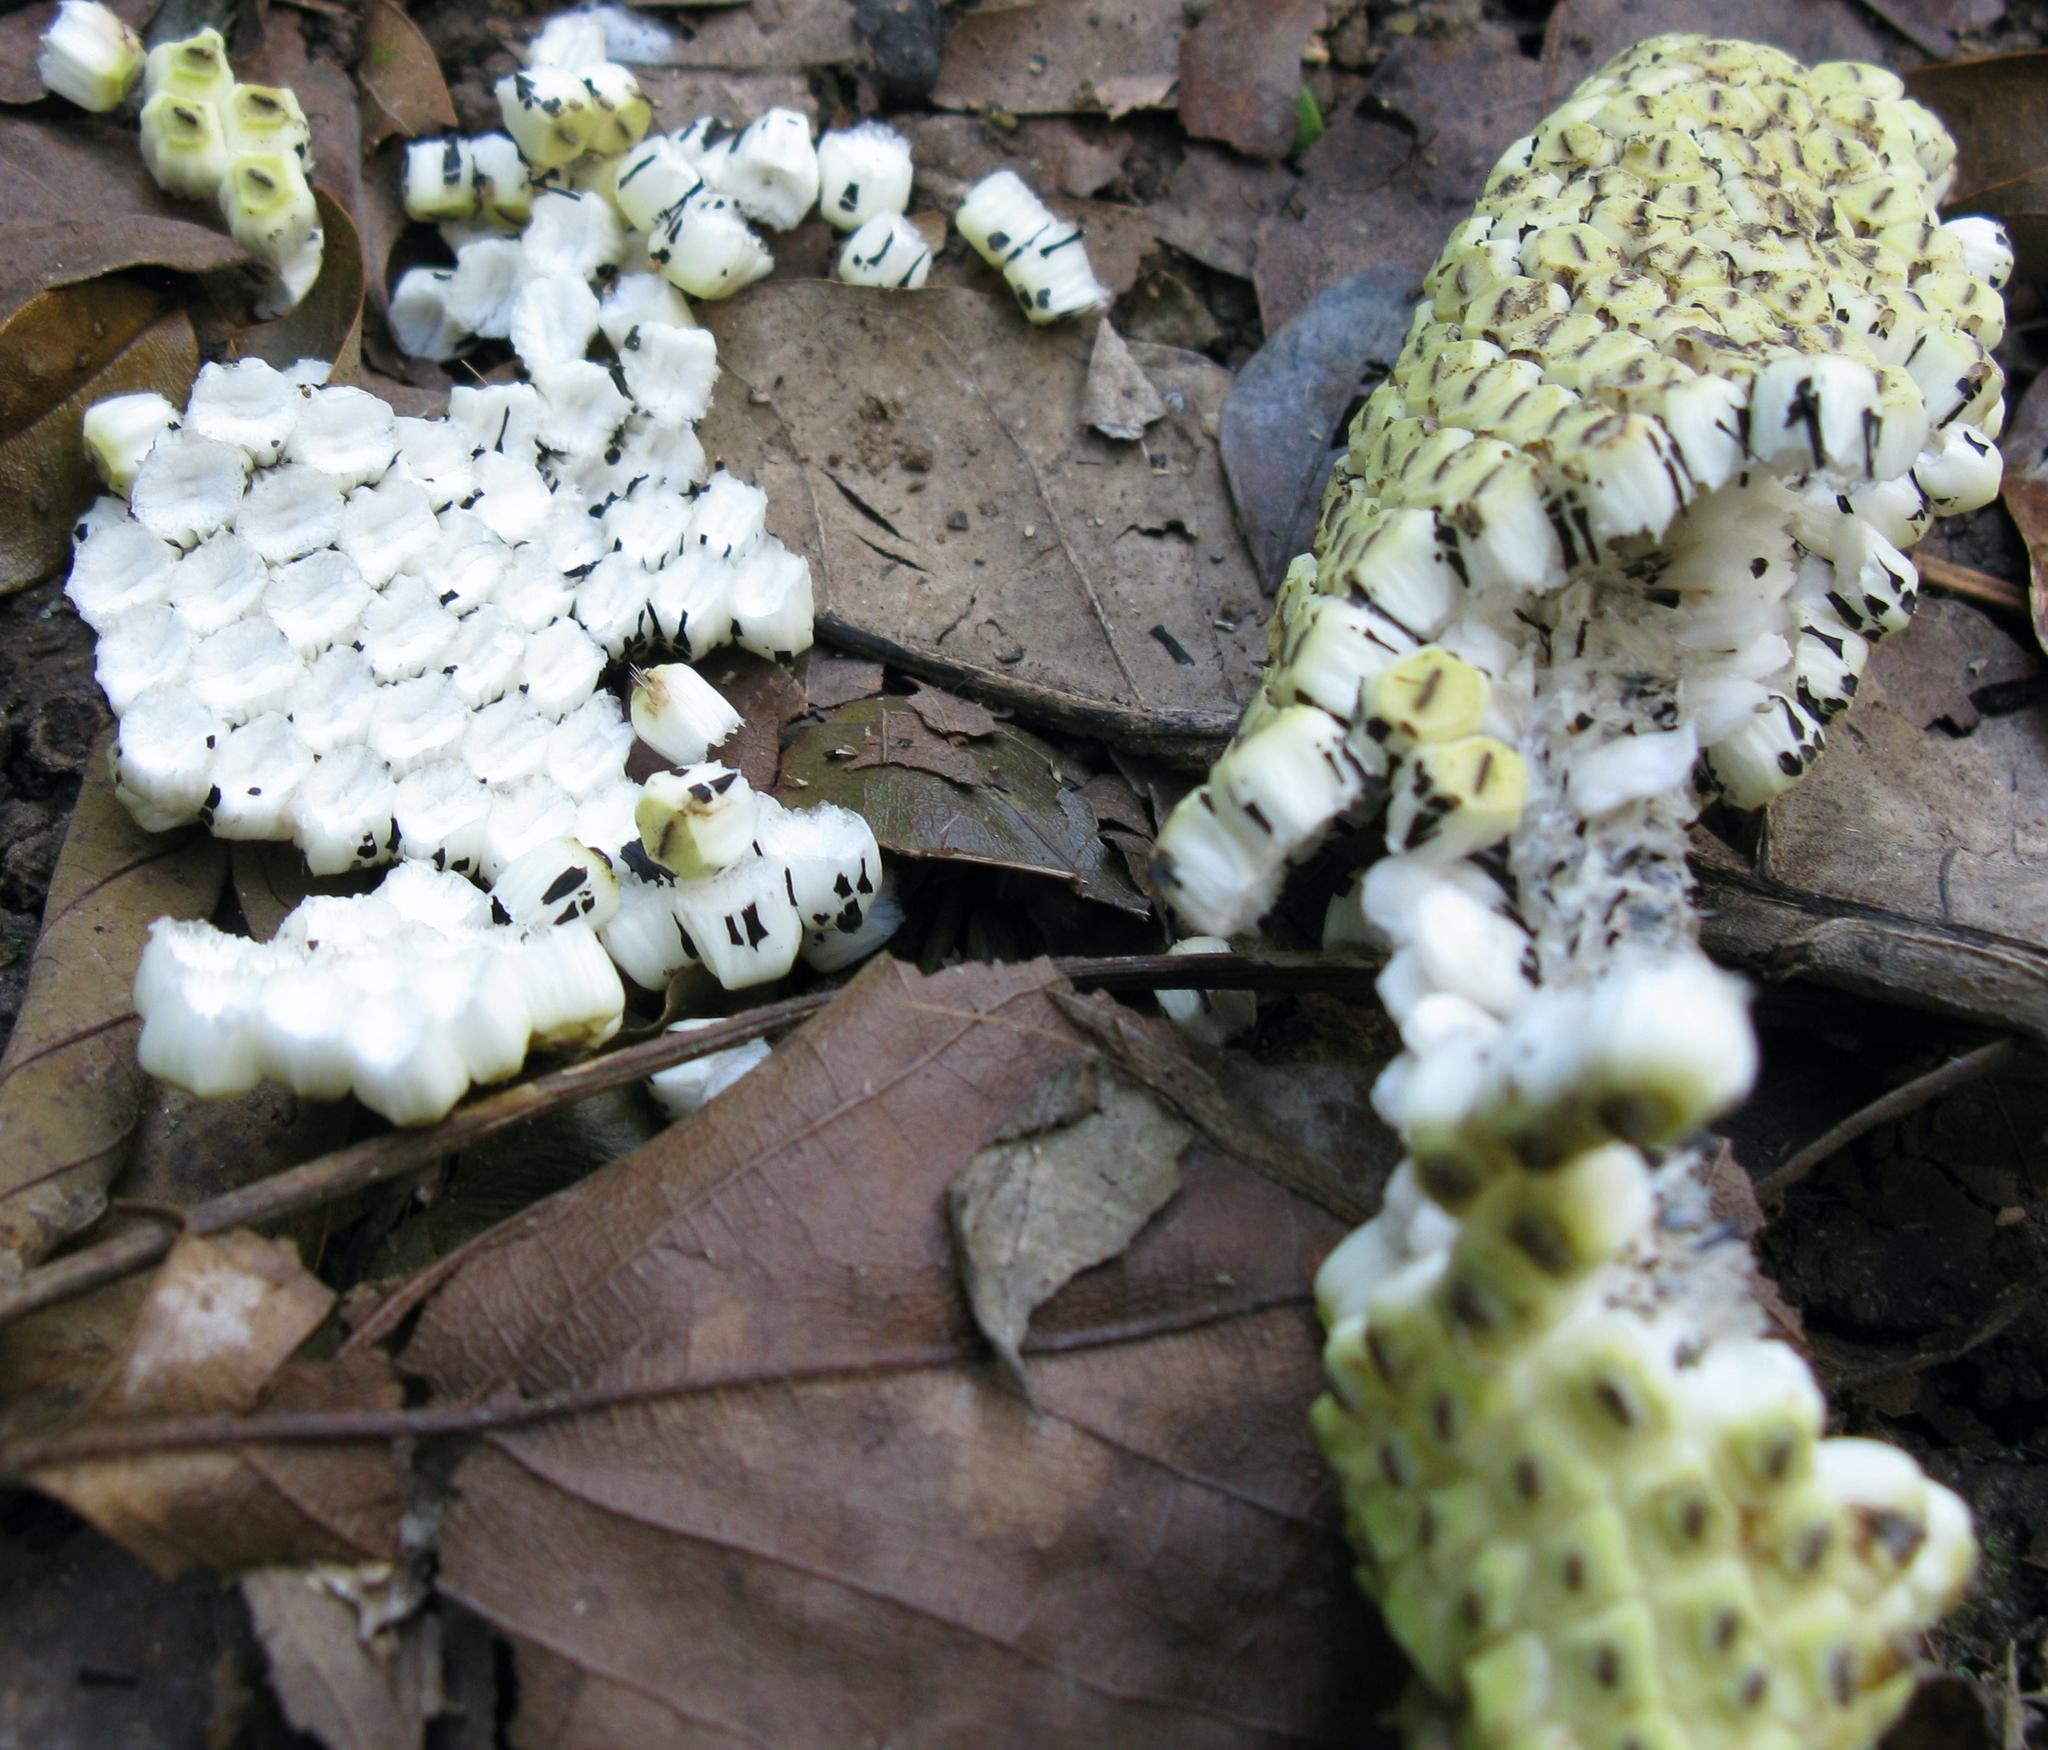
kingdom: Plantae
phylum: Tracheophyta
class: Liliopsida
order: Alismatales
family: Araceae
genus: Monstera
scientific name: Monstera deliciosa
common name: Cut-leaf-philodendron
